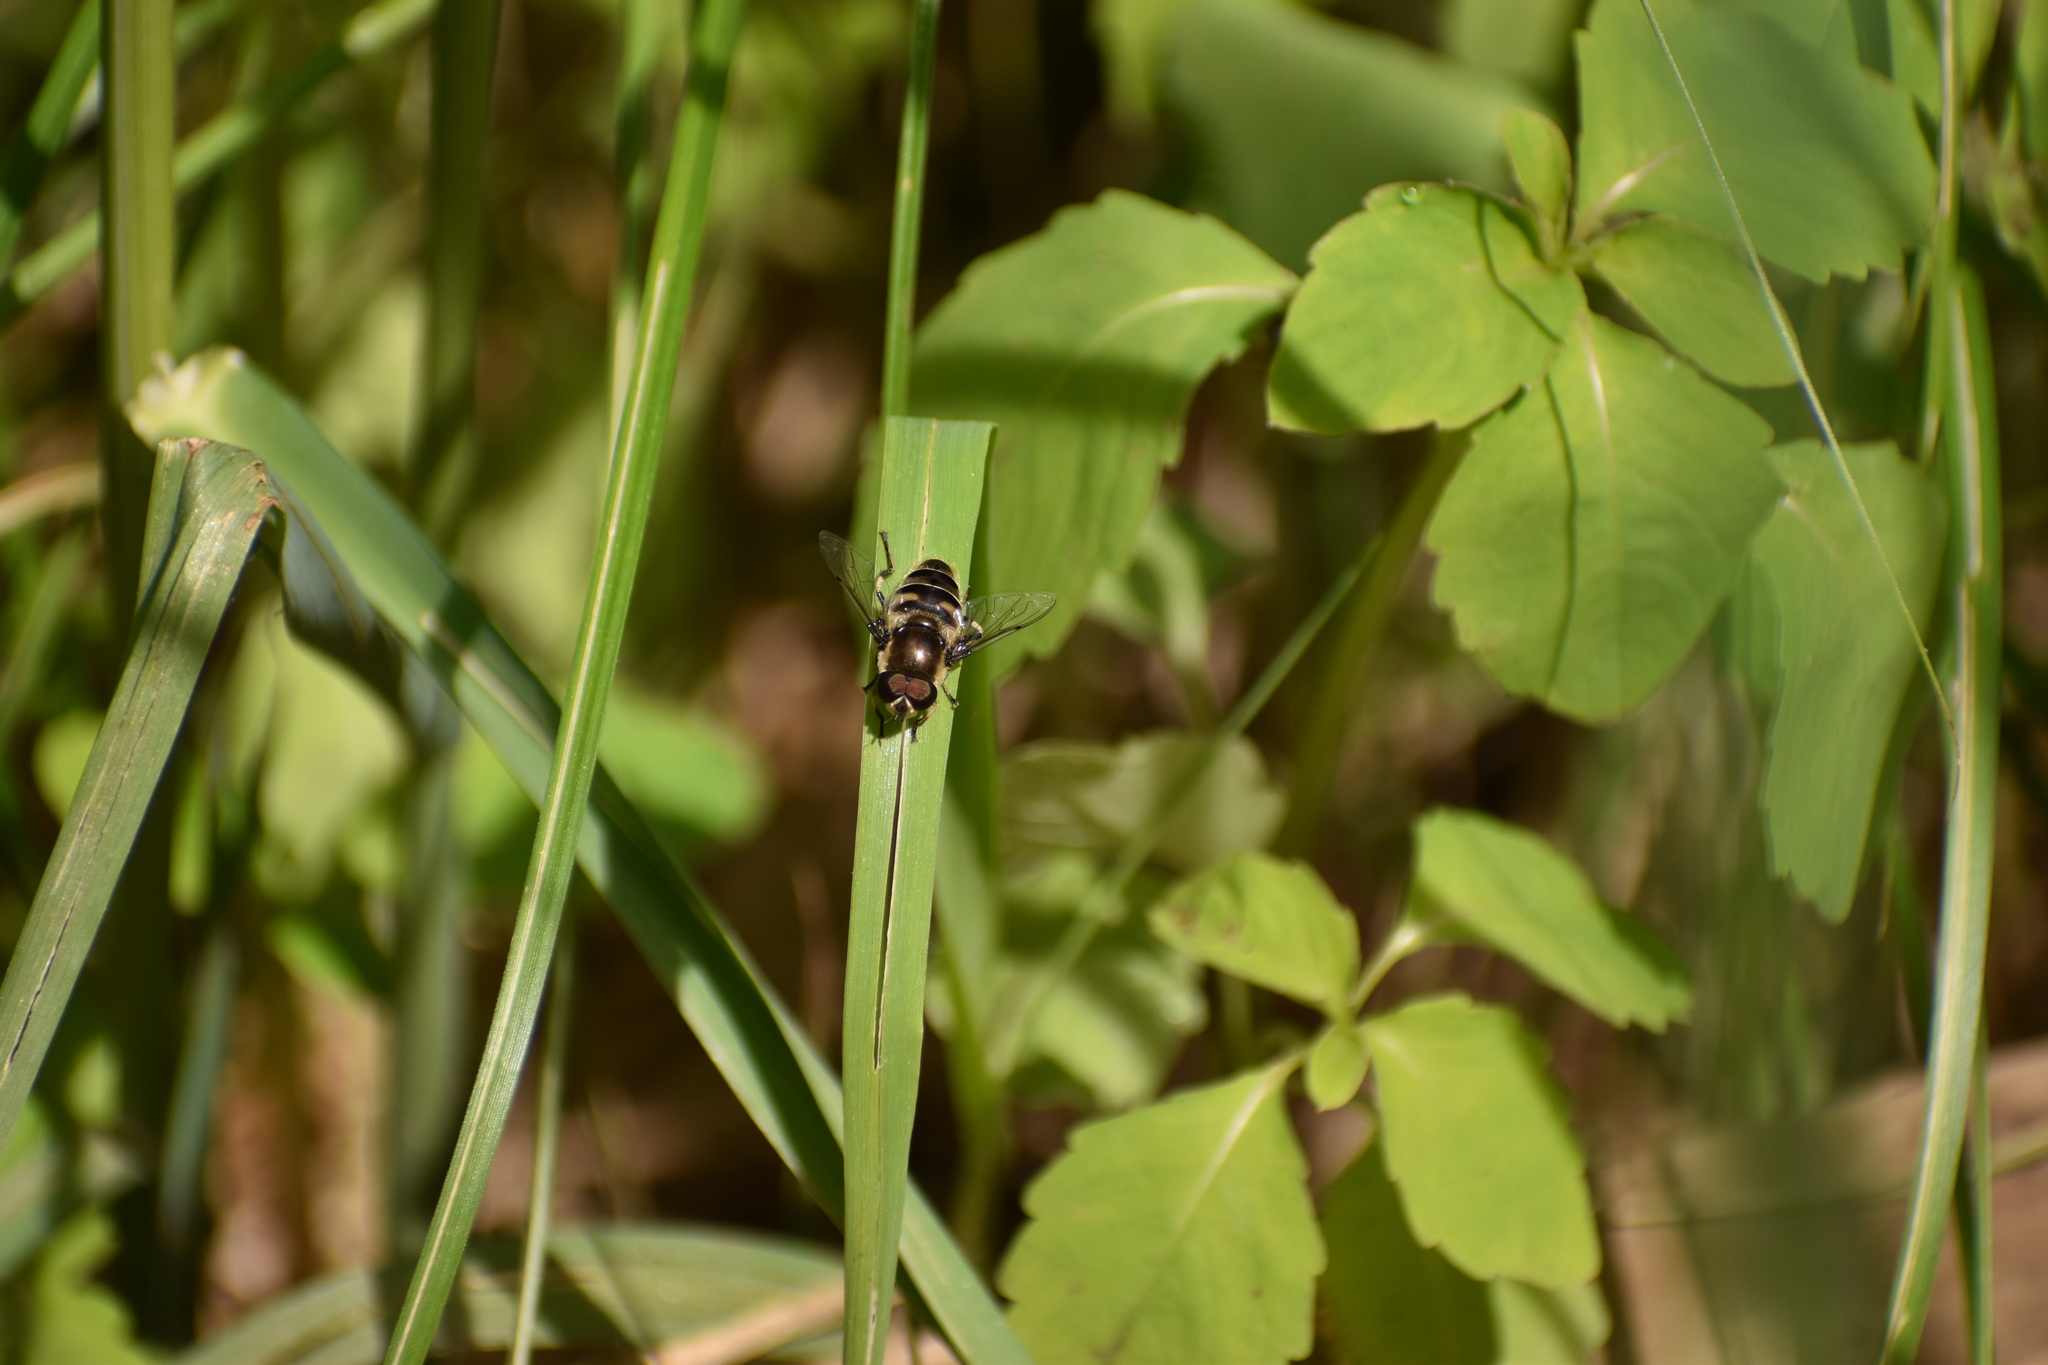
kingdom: Animalia
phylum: Arthropoda
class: Insecta
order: Diptera
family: Syrphidae
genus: Eristalis
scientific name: Eristalis dimidiata
